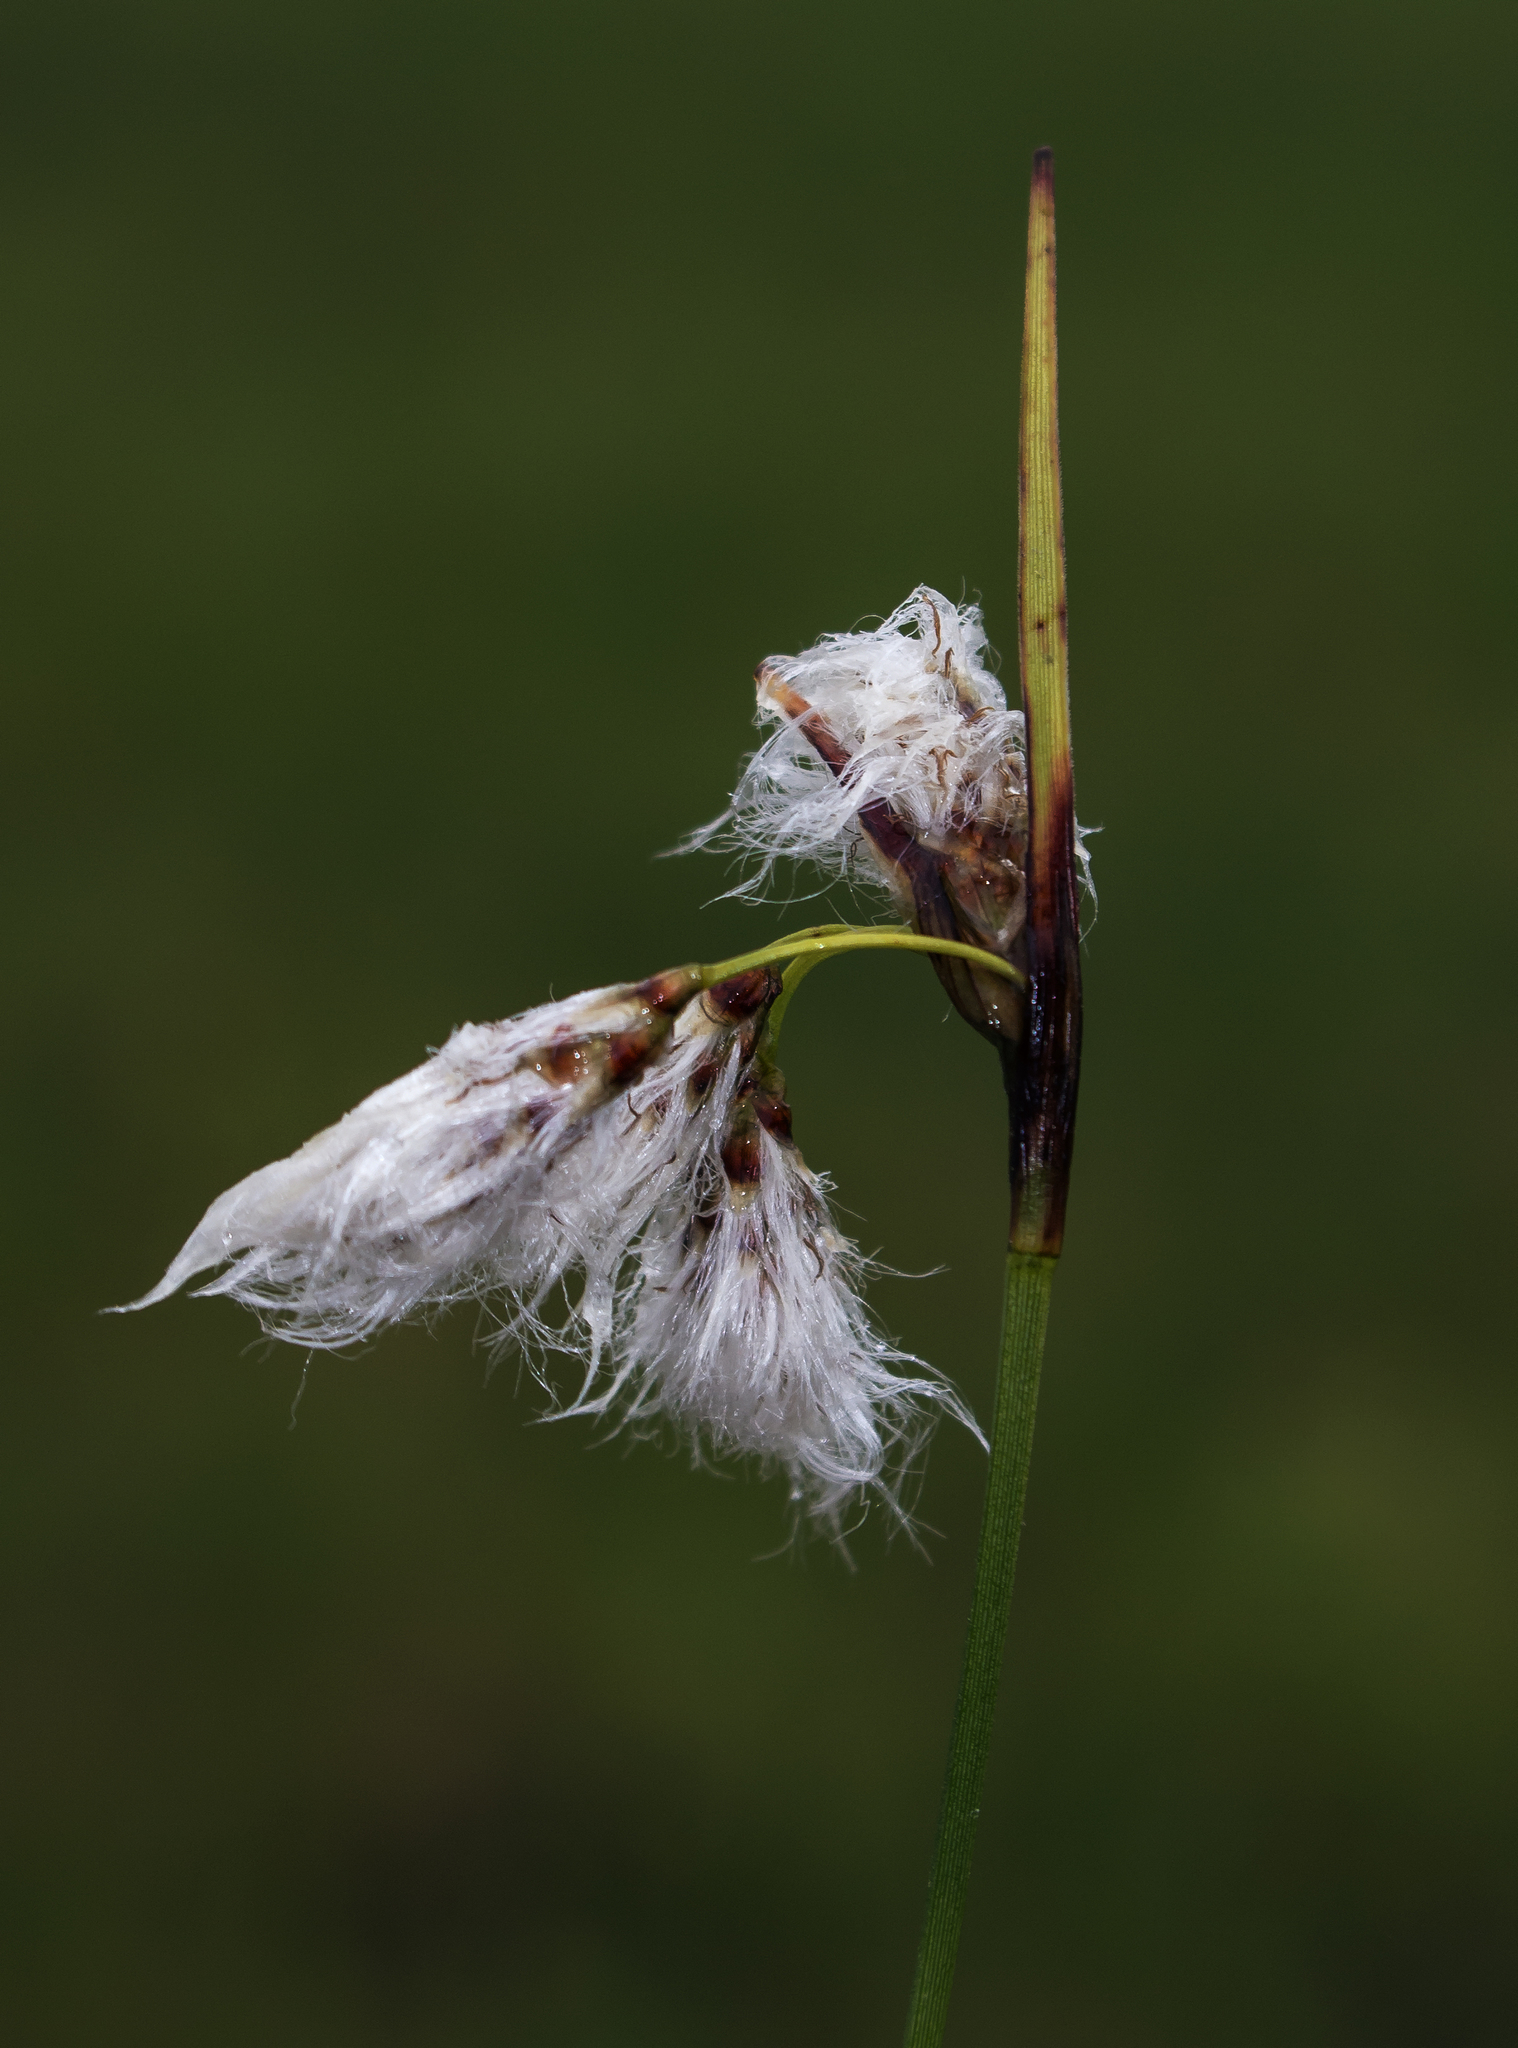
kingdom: Plantae
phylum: Tracheophyta
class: Liliopsida
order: Poales
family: Cyperaceae
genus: Eriophorum
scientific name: Eriophorum angustifolium
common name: Common cottongrass
